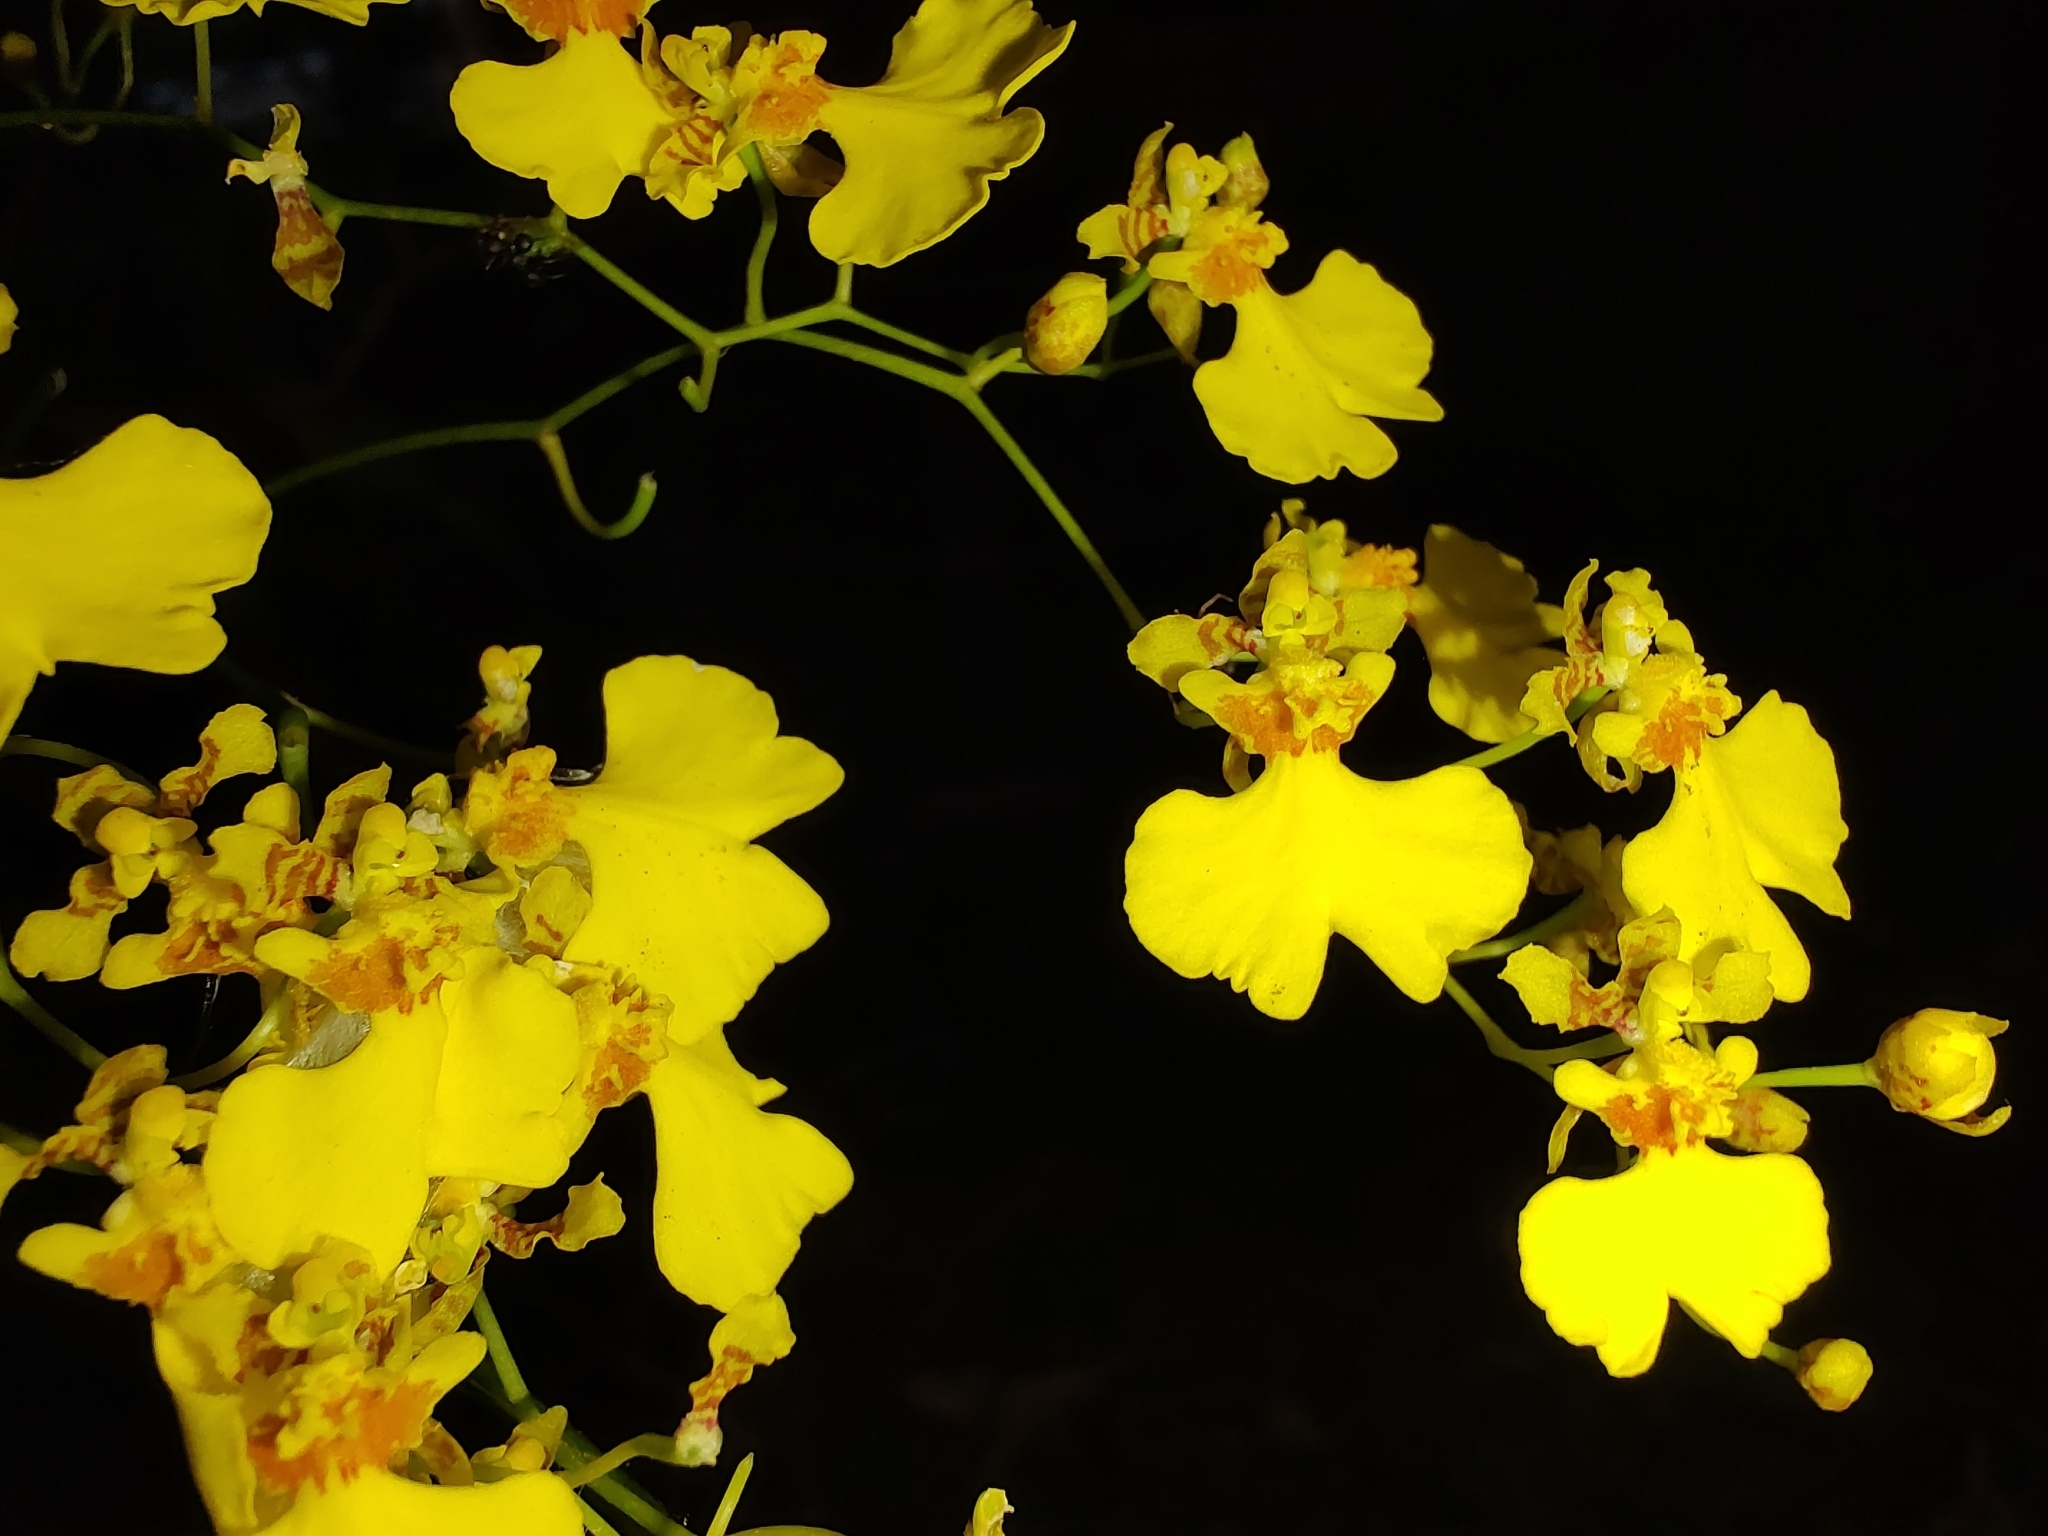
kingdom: Plantae
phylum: Tracheophyta
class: Liliopsida
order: Asparagales
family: Orchidaceae
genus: Gomesa
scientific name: Gomesa flexuosa
